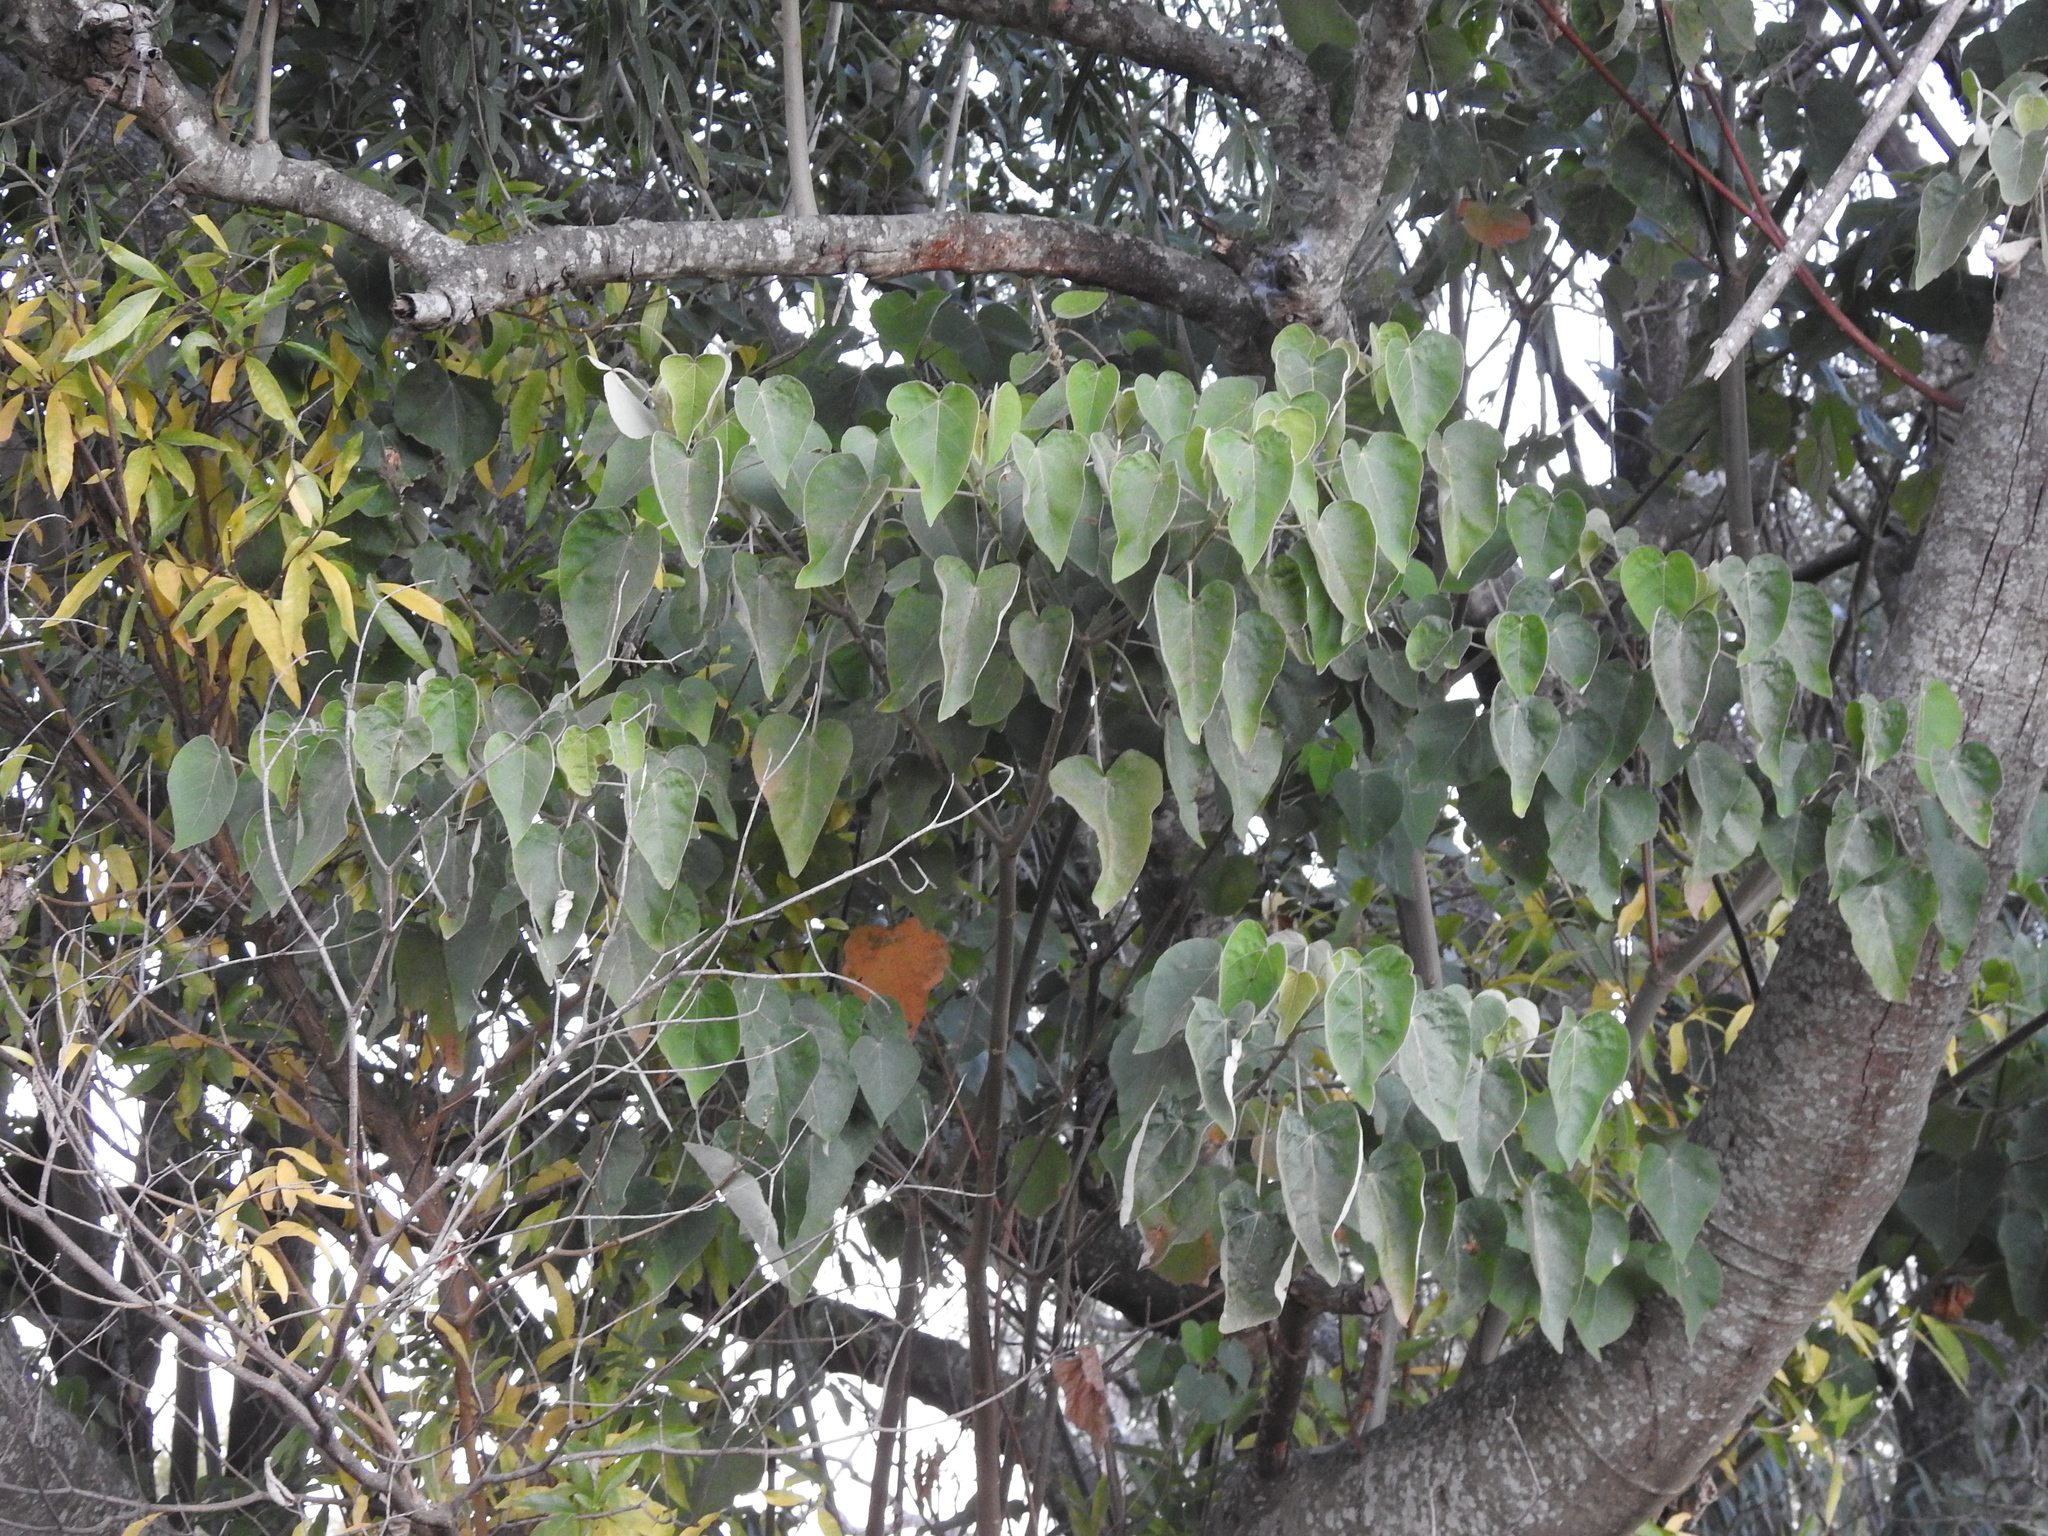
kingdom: Plantae
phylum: Tracheophyta
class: Magnoliopsida
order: Malpighiales
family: Euphorbiaceae
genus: Croton
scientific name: Croton urucurana
